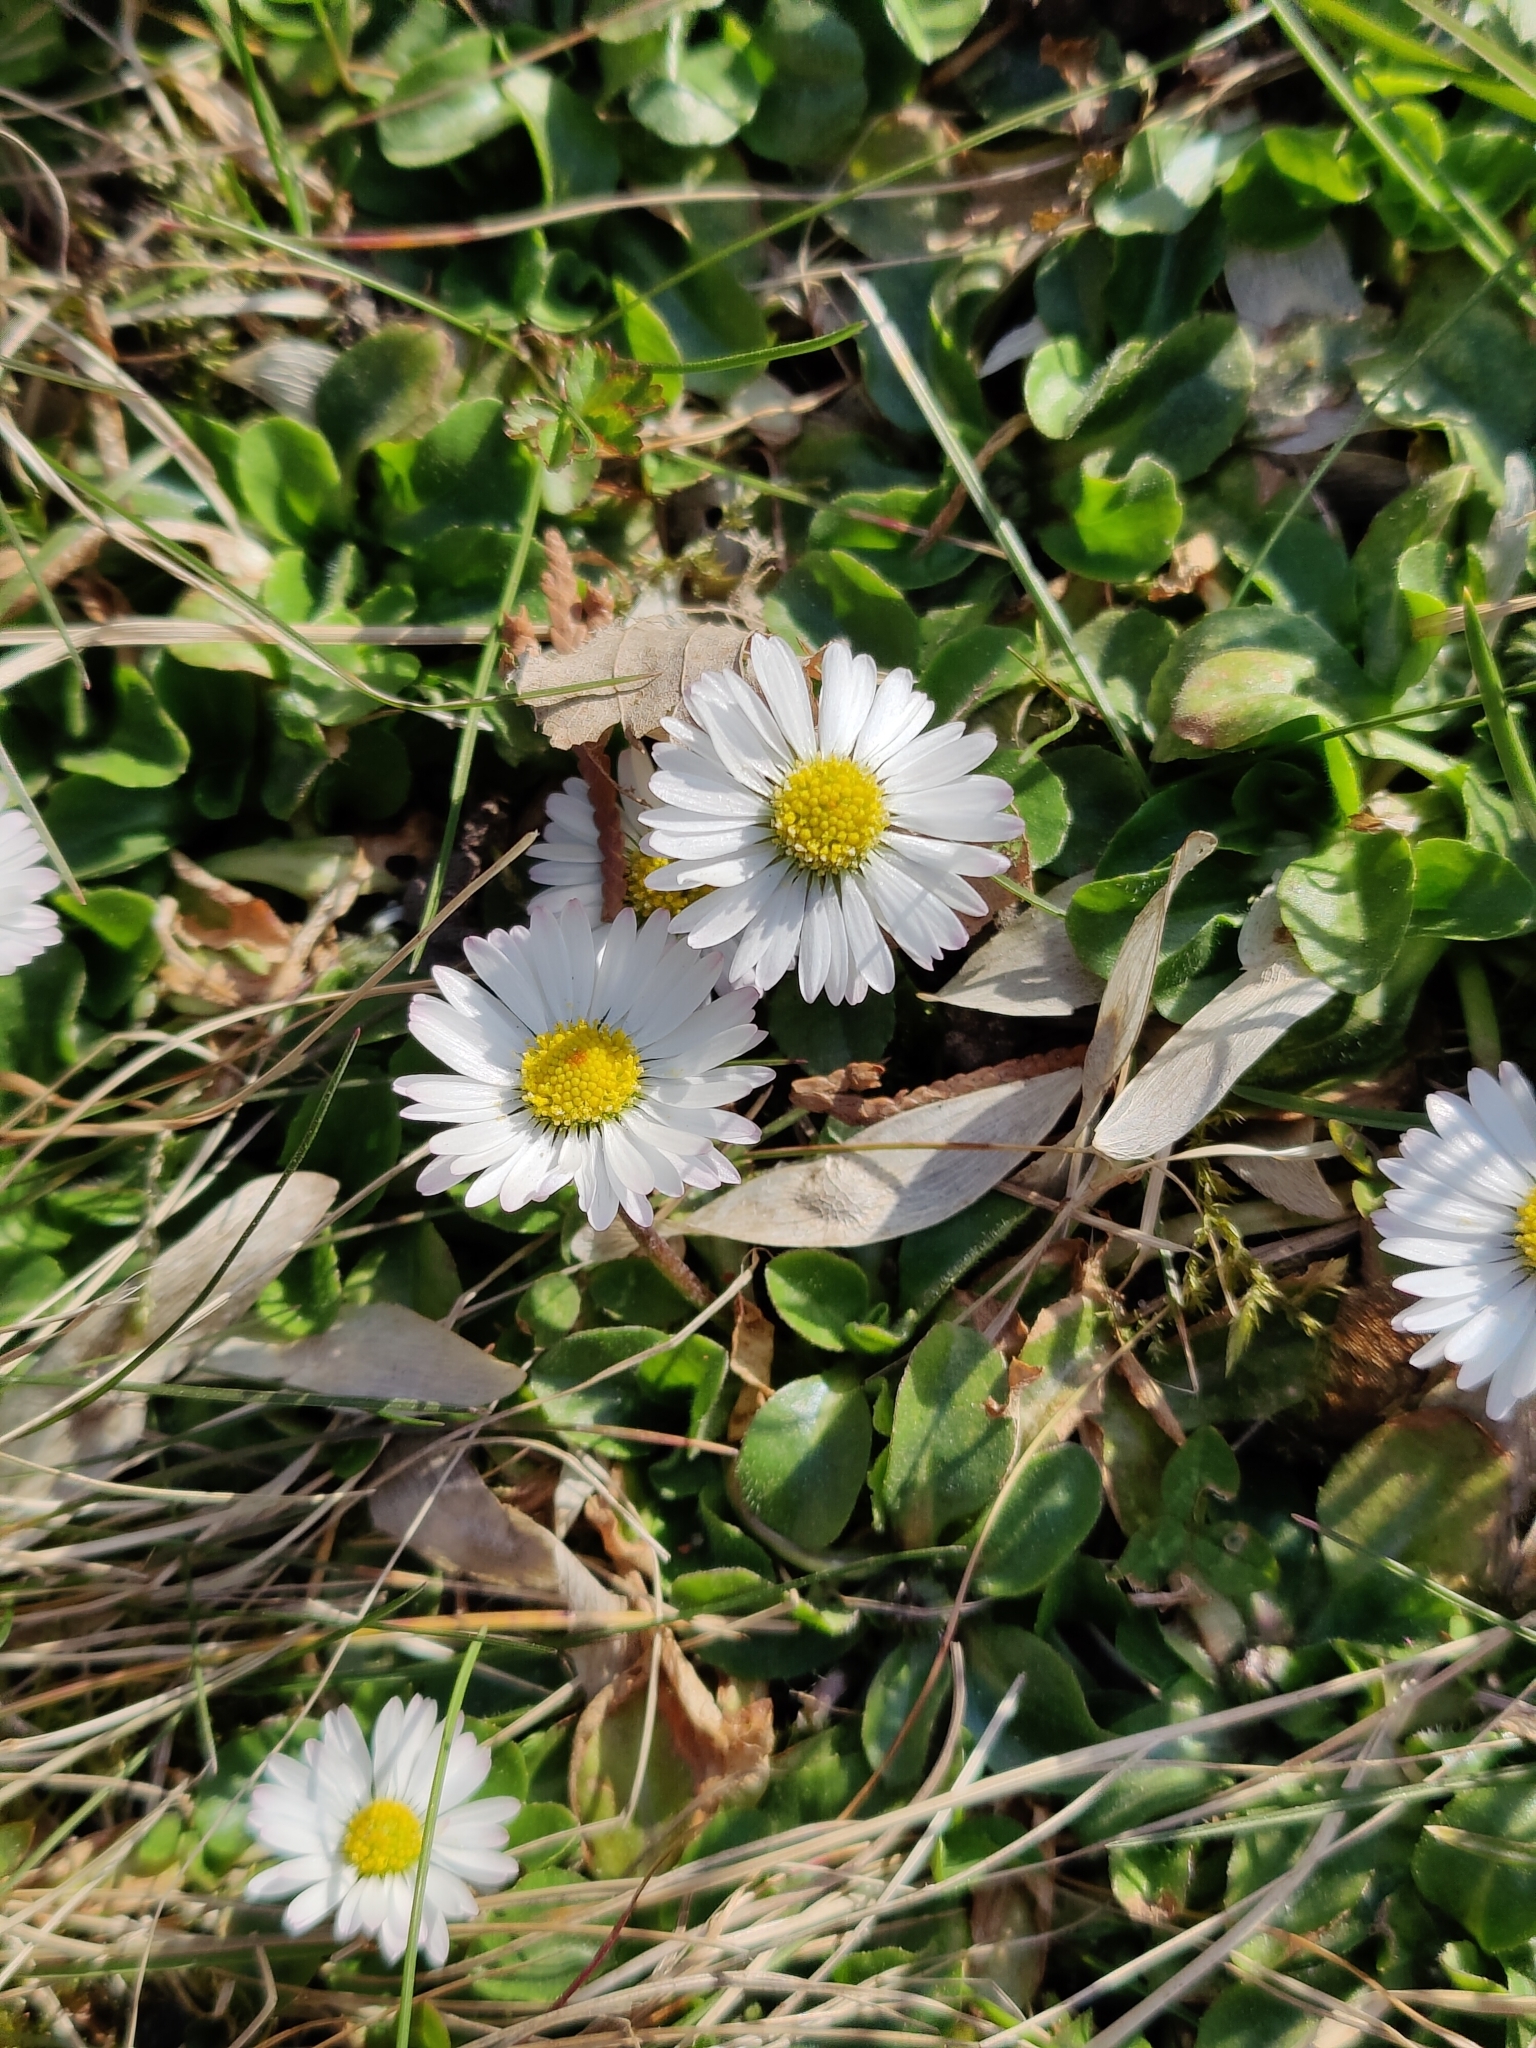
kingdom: Plantae
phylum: Tracheophyta
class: Magnoliopsida
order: Asterales
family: Asteraceae
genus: Bellis
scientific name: Bellis perennis
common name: Lawndaisy
